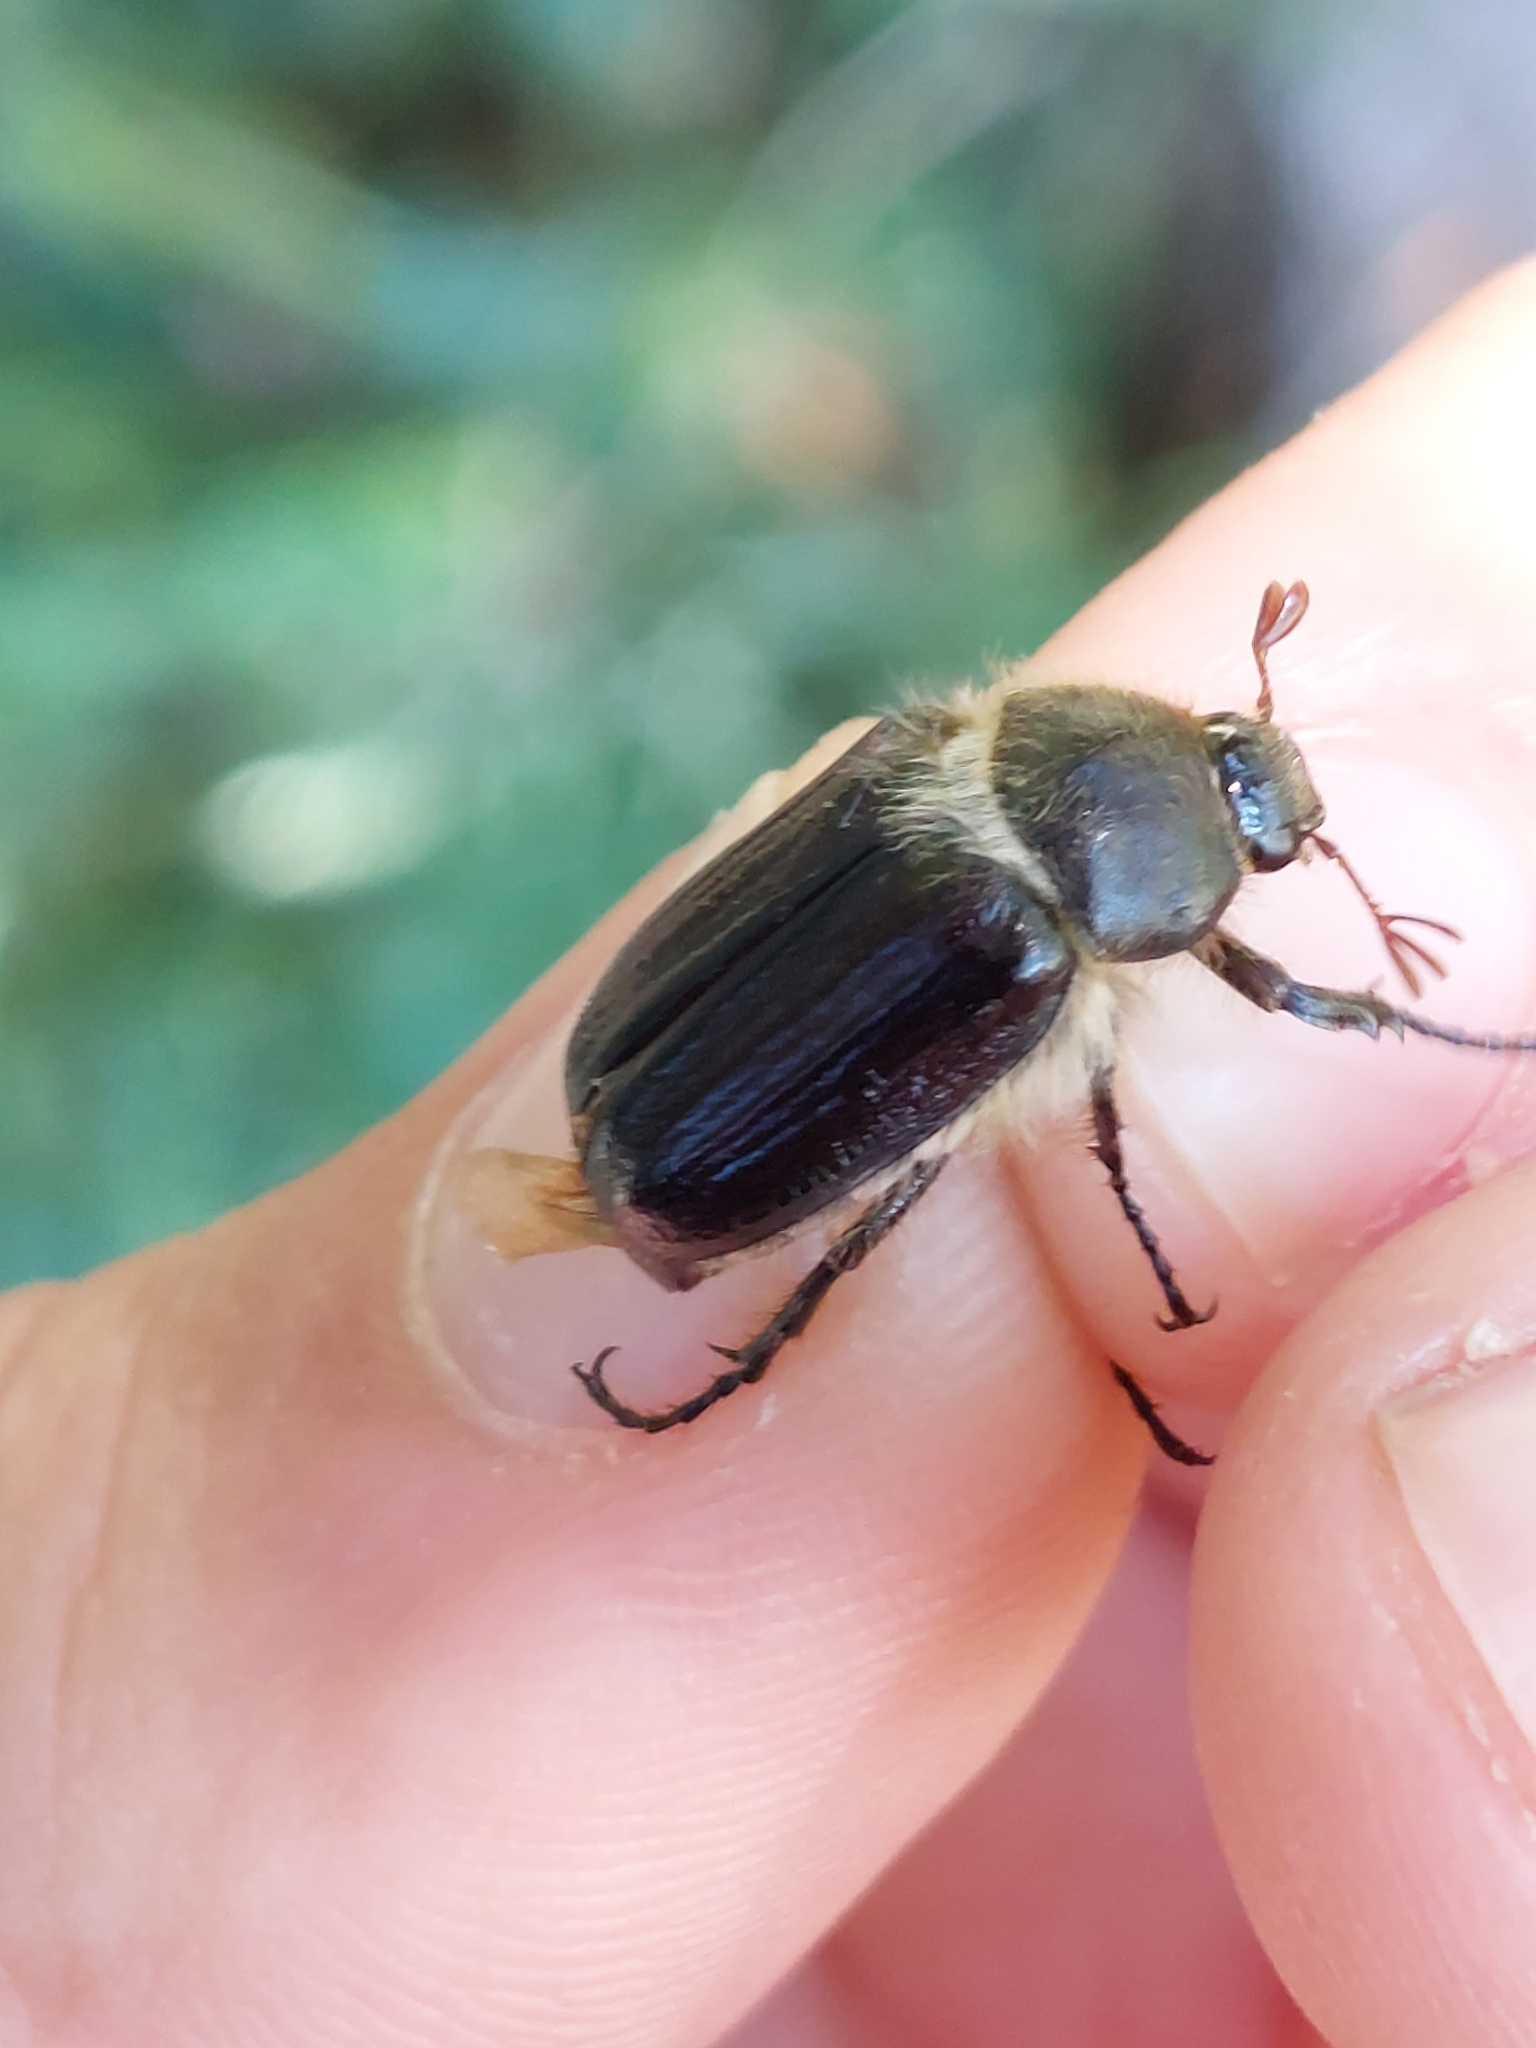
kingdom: Animalia
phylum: Arthropoda
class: Insecta
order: Coleoptera
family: Scarabaeidae
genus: Amphimallon
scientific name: Amphimallon atrum
